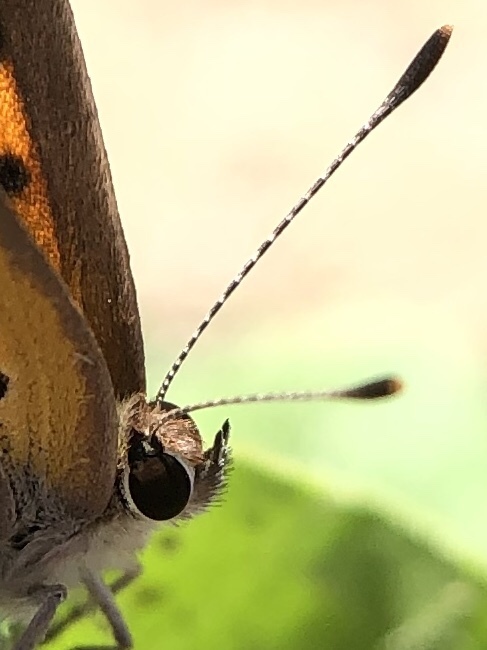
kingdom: Animalia
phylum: Arthropoda
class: Insecta
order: Lepidoptera
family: Lycaenidae
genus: Lycaena
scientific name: Lycaena phlaeas
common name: Small copper
